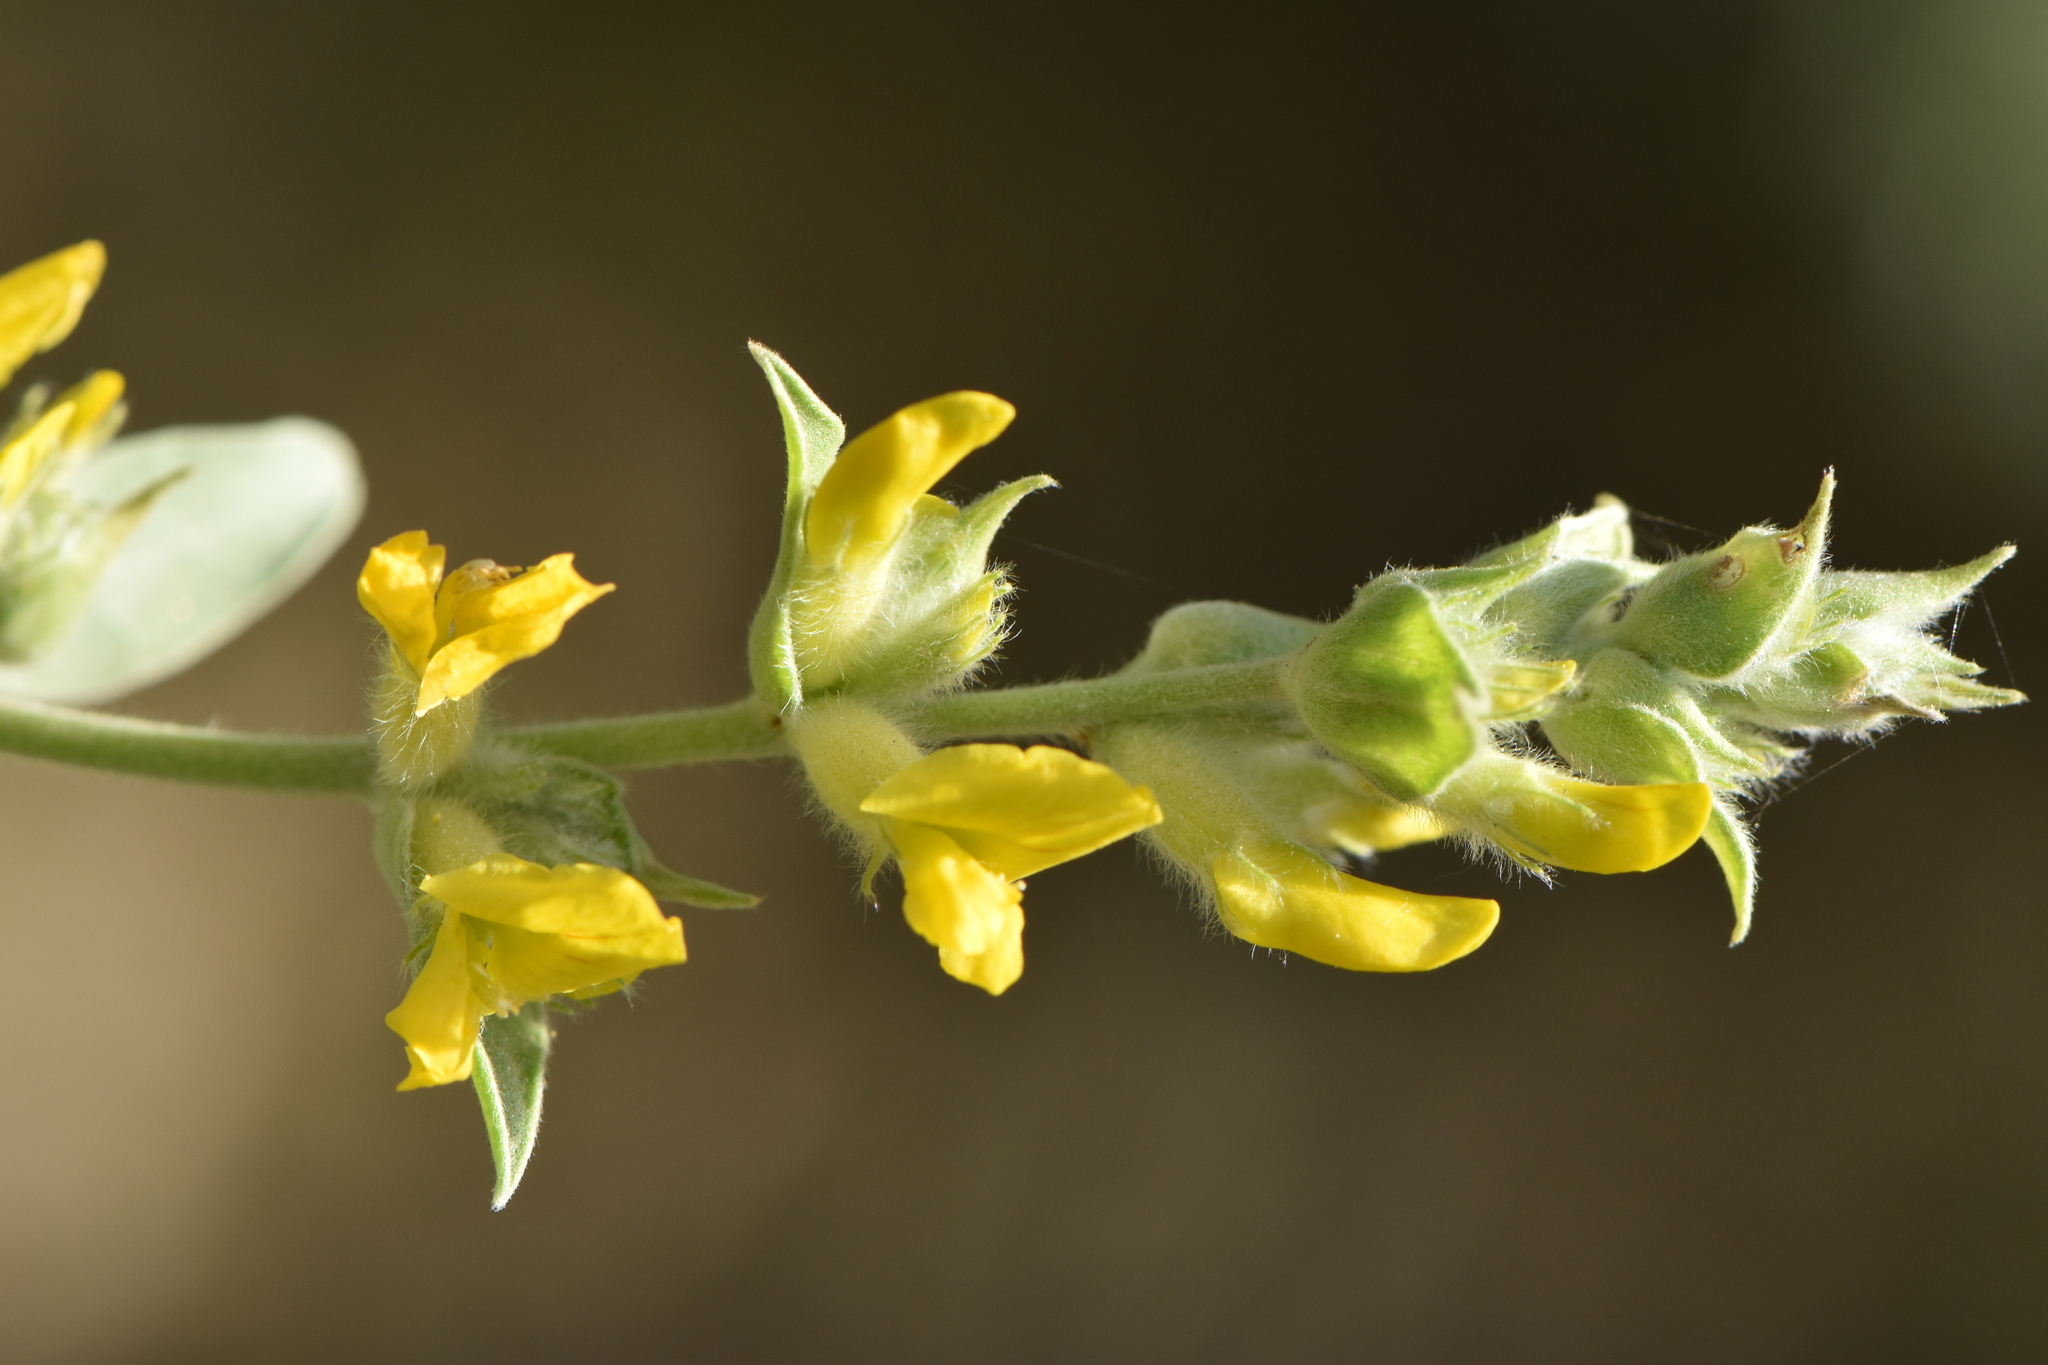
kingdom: Plantae
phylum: Tracheophyta
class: Magnoliopsida
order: Fabales
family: Fabaceae
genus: Anthyllis
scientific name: Anthyllis cytisoides
